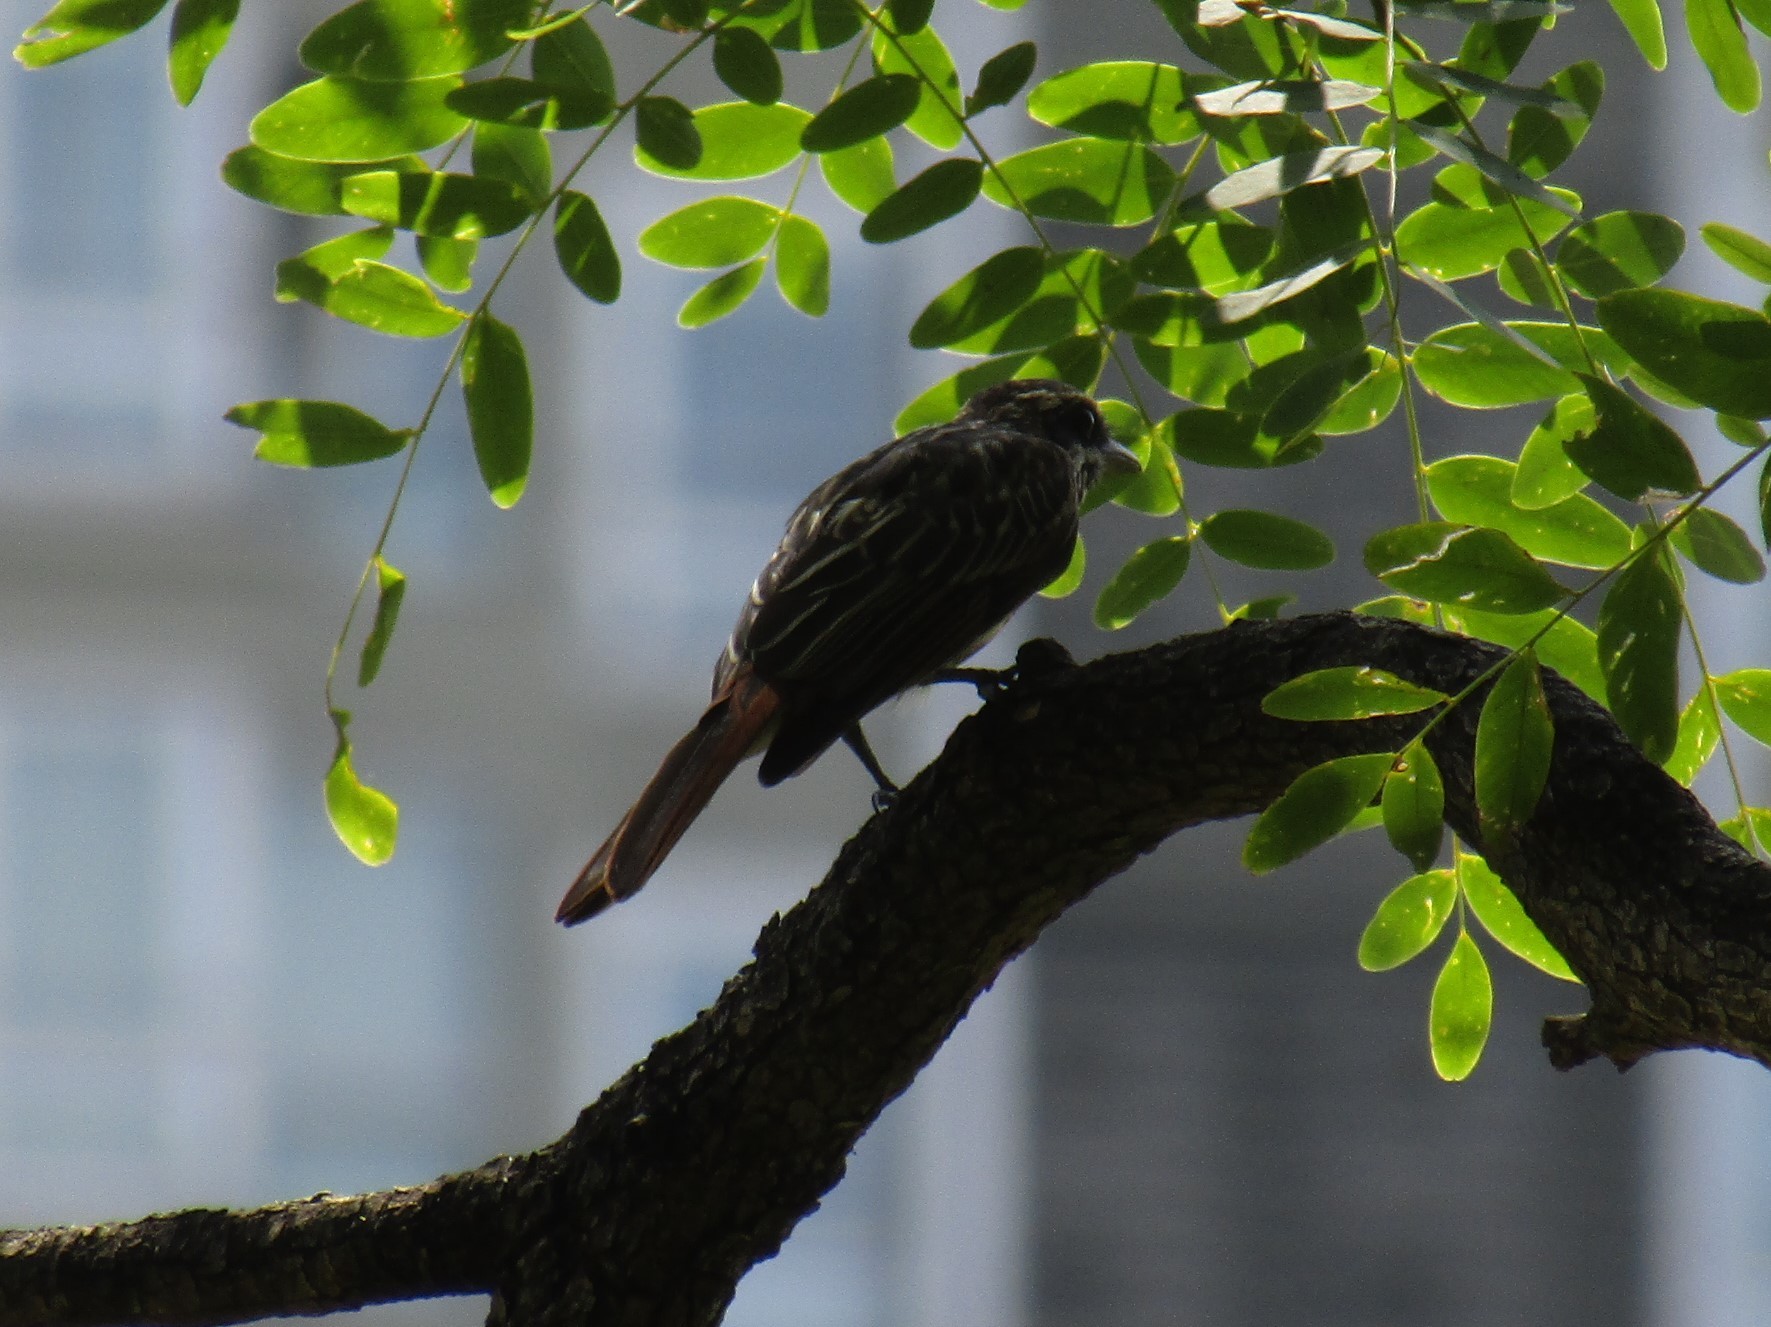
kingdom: Animalia
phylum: Chordata
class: Aves
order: Passeriformes
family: Tyrannidae
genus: Myiodynastes
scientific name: Myiodynastes maculatus
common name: Streaked flycatcher
